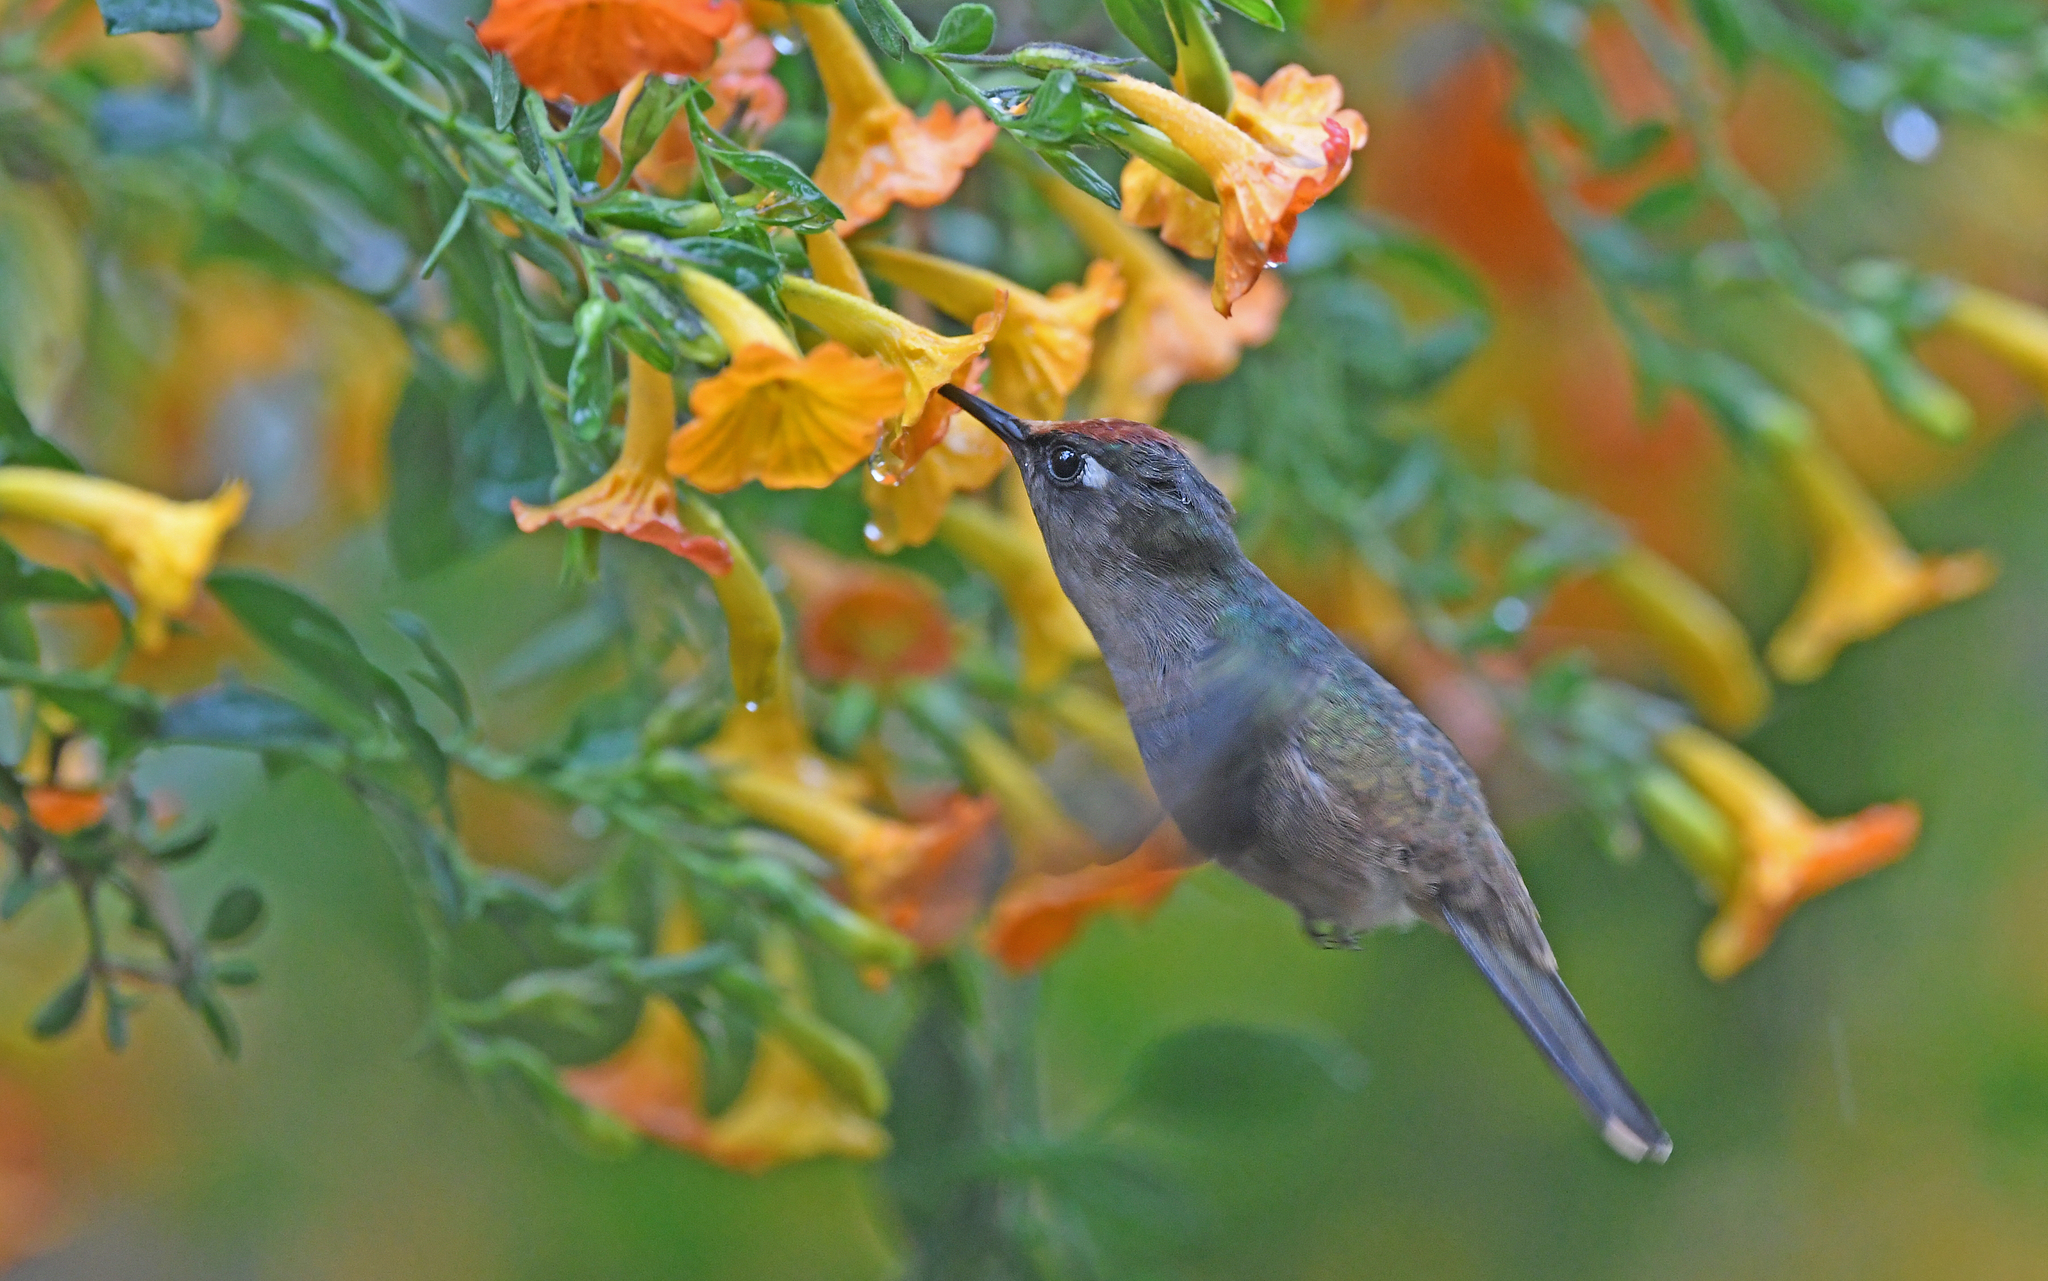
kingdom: Animalia
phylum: Chordata
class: Aves
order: Apodiformes
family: Trochilidae
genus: Anthocephala
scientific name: Anthocephala floriceps
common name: Santa marta blossomcrown
